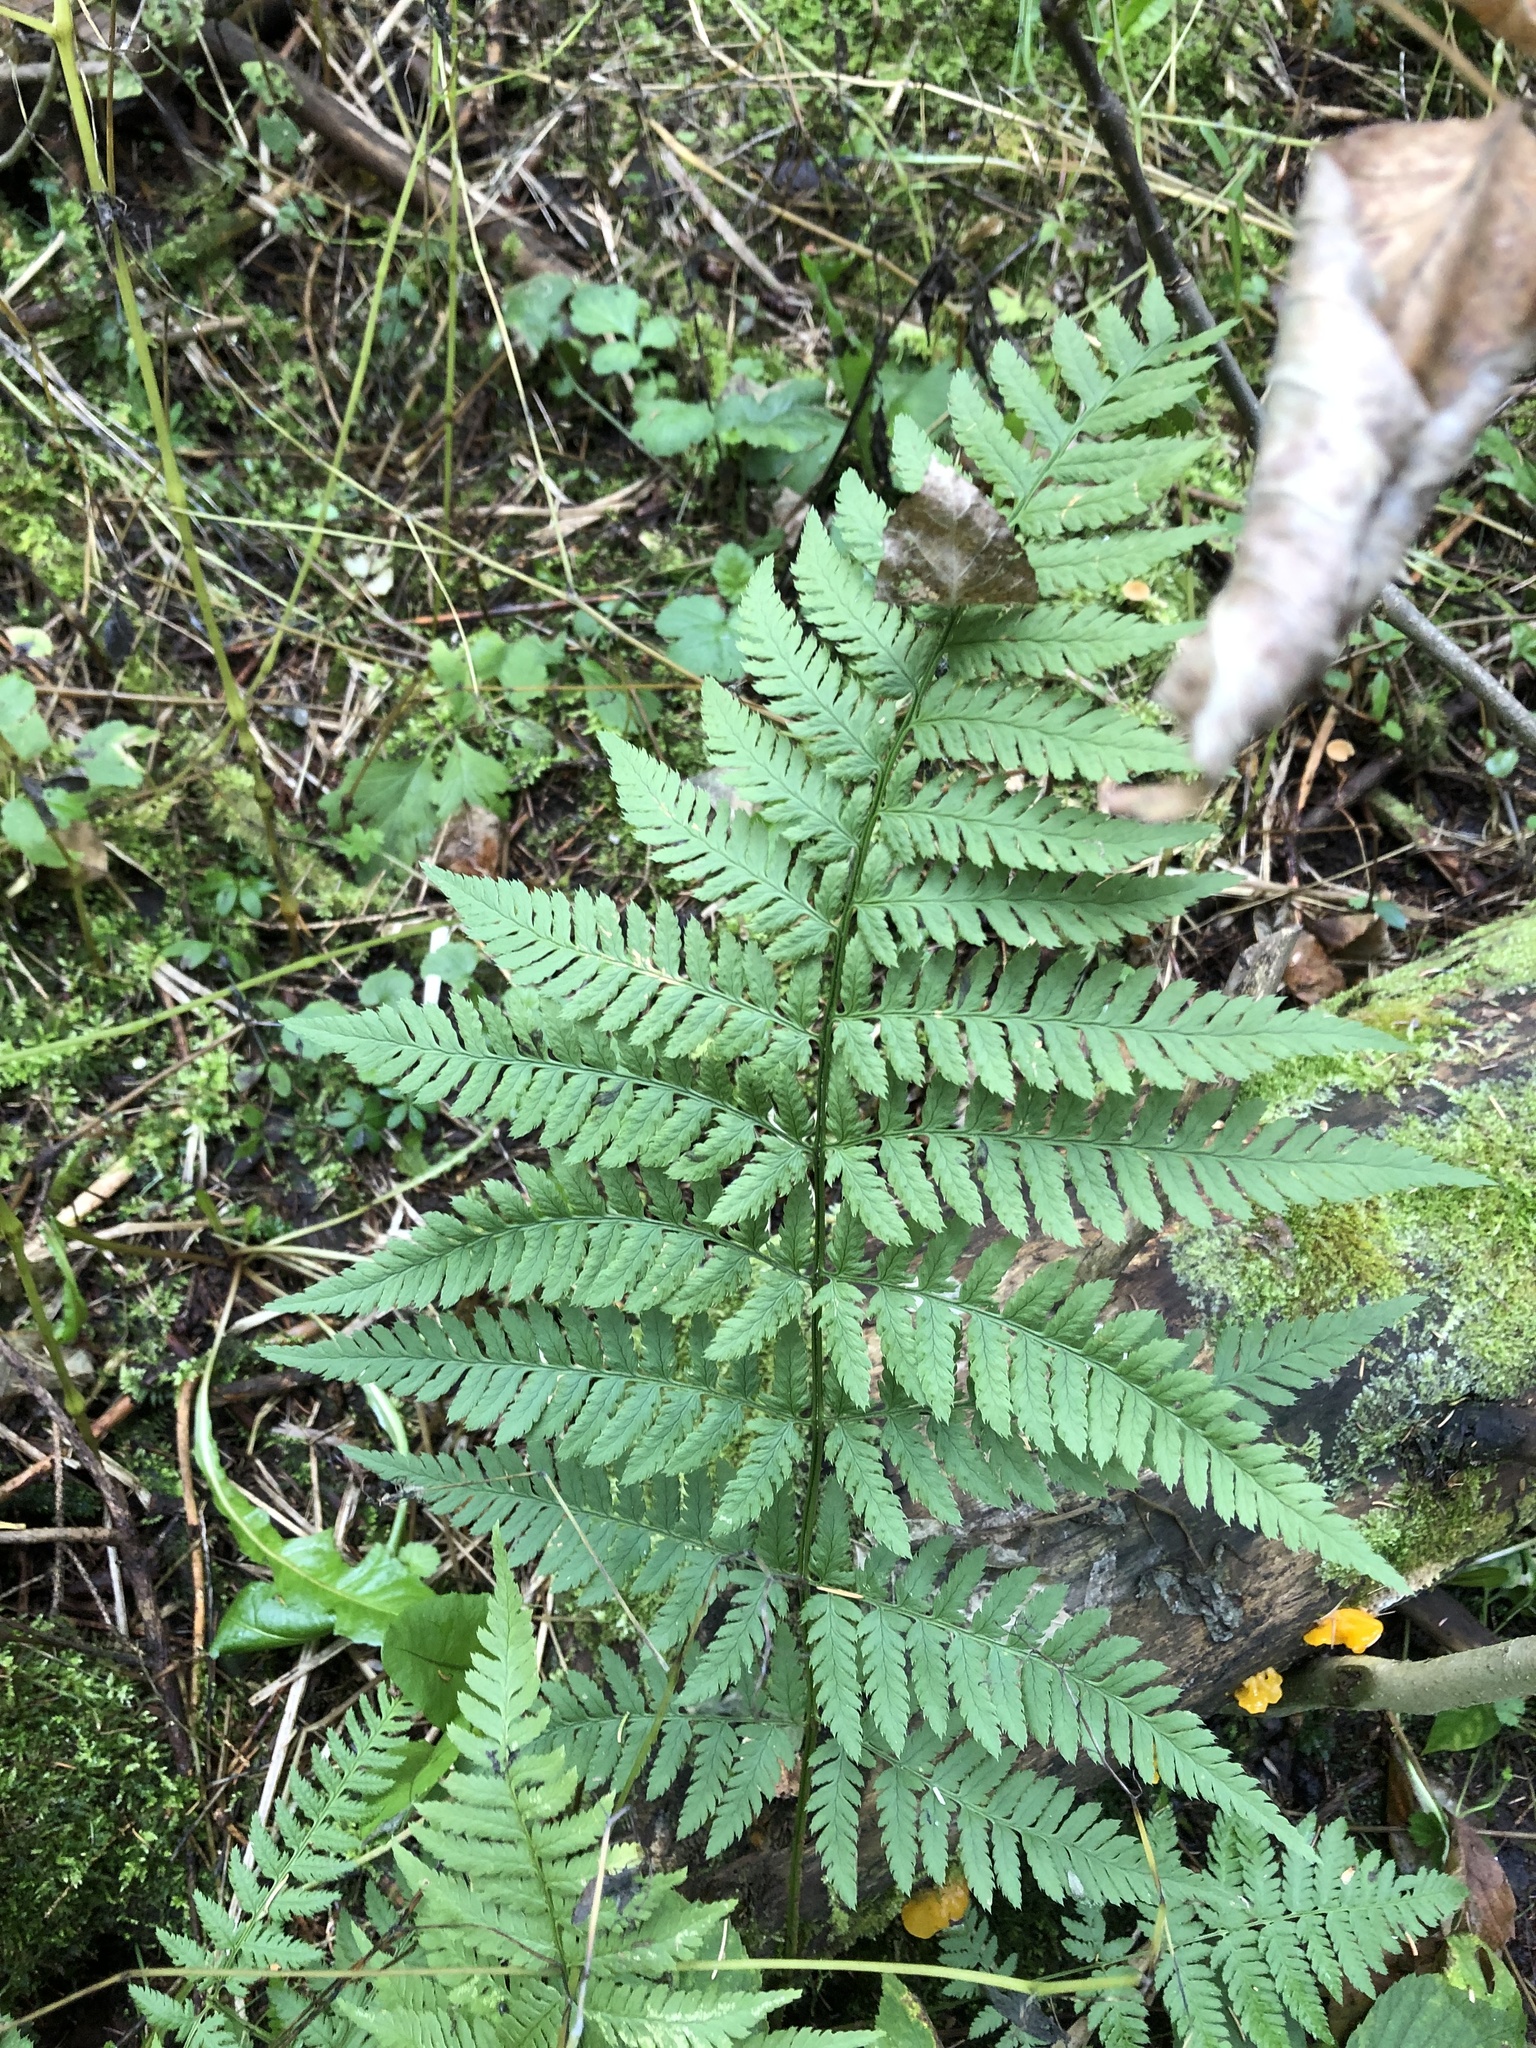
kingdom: Plantae
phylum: Tracheophyta
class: Polypodiopsida
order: Polypodiales
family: Dryopteridaceae
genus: Dryopteris
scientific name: Dryopteris carthusiana
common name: Narrow buckler-fern
